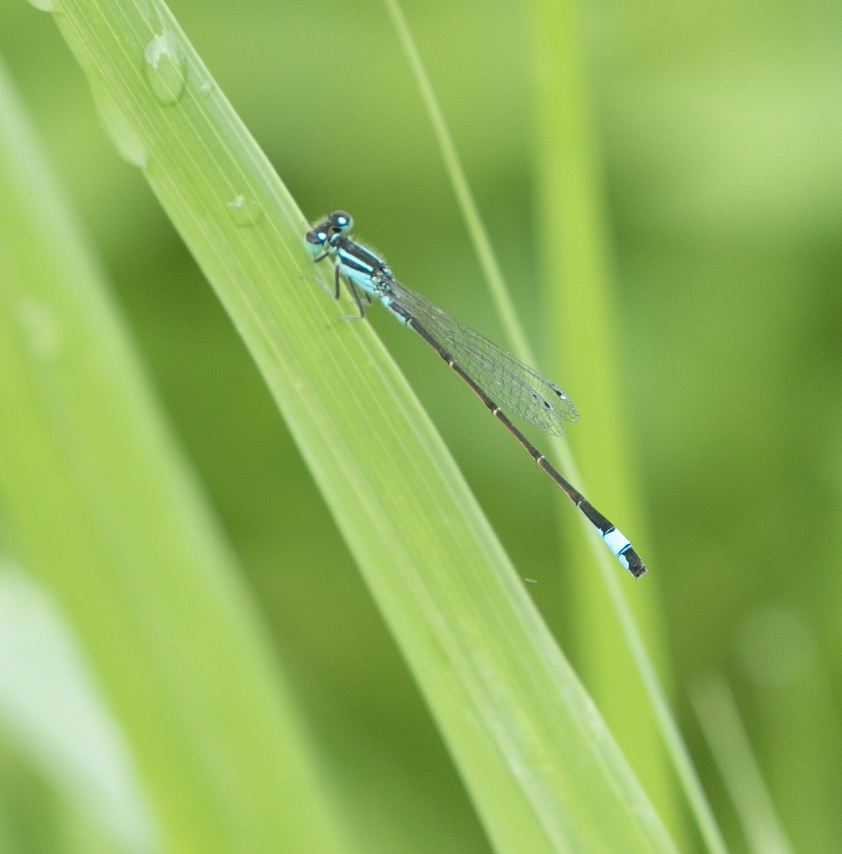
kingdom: Animalia
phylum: Arthropoda
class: Insecta
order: Odonata
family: Coenagrionidae
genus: Ischnura
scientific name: Ischnura elegans
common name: Blue-tailed damselfly
